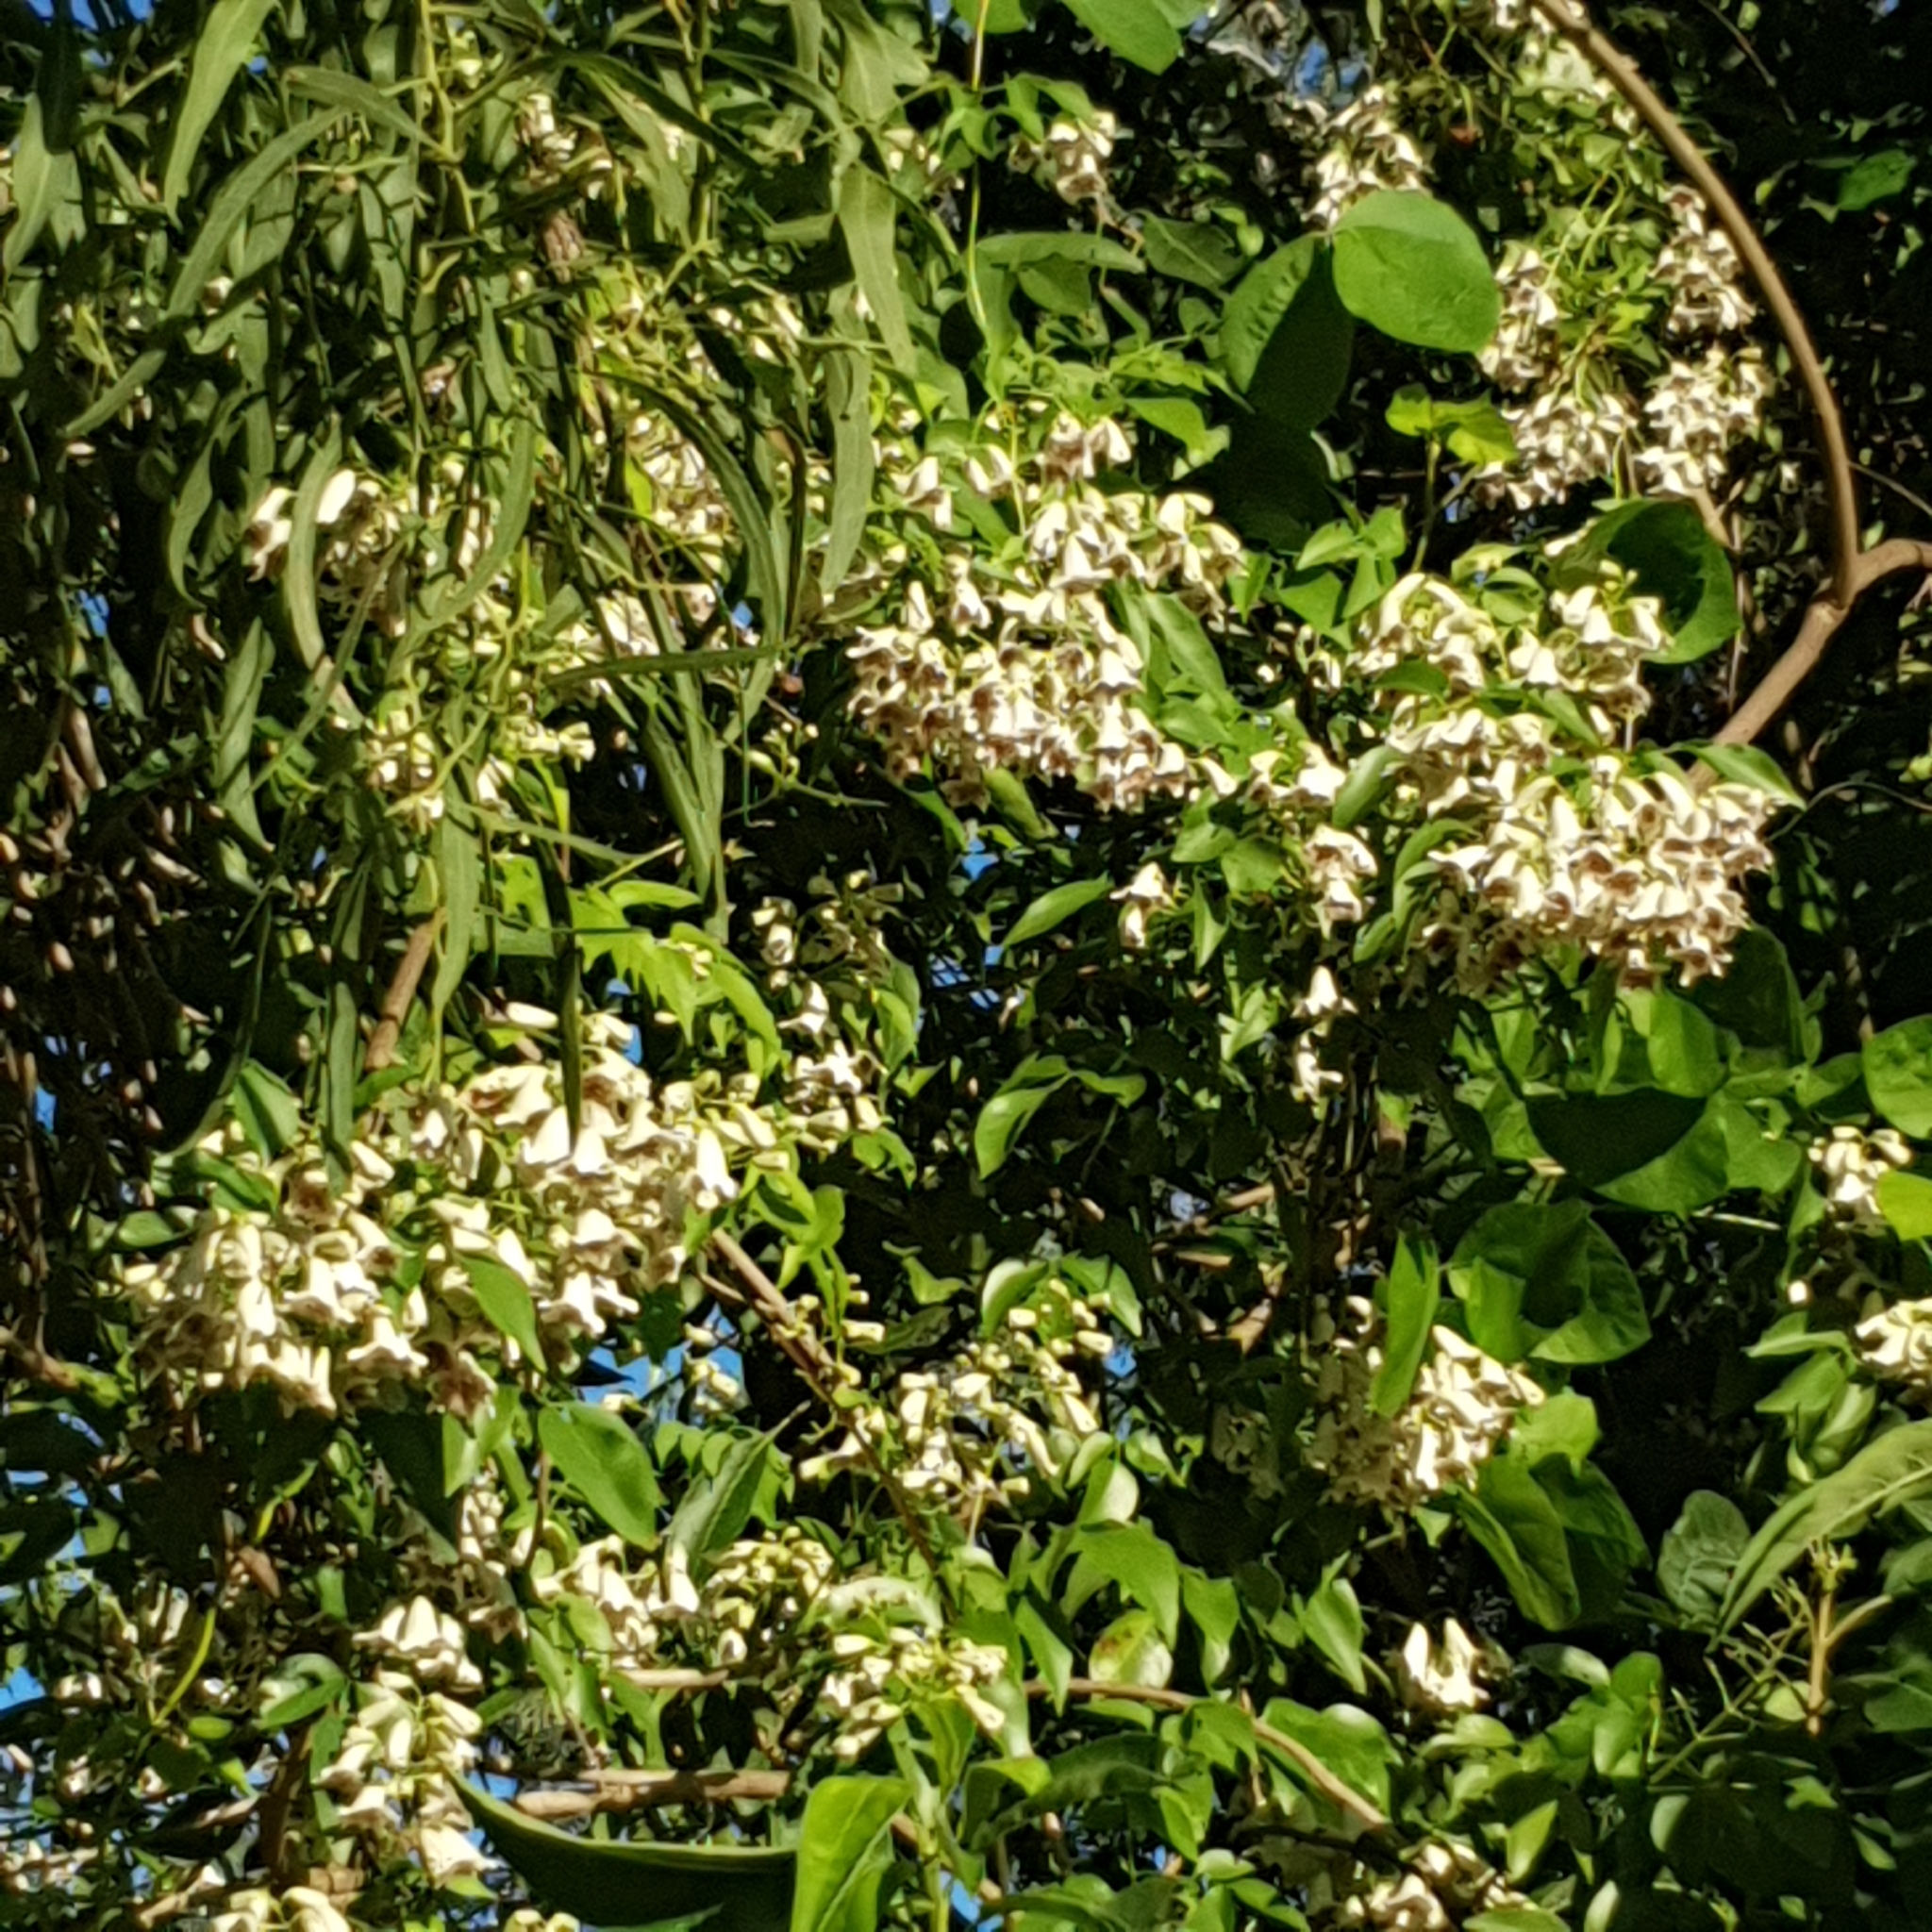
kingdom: Plantae
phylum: Tracheophyta
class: Magnoliopsida
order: Lamiales
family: Bignoniaceae
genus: Pandorea
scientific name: Pandorea pandorana
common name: Wonga-wonga-vine
